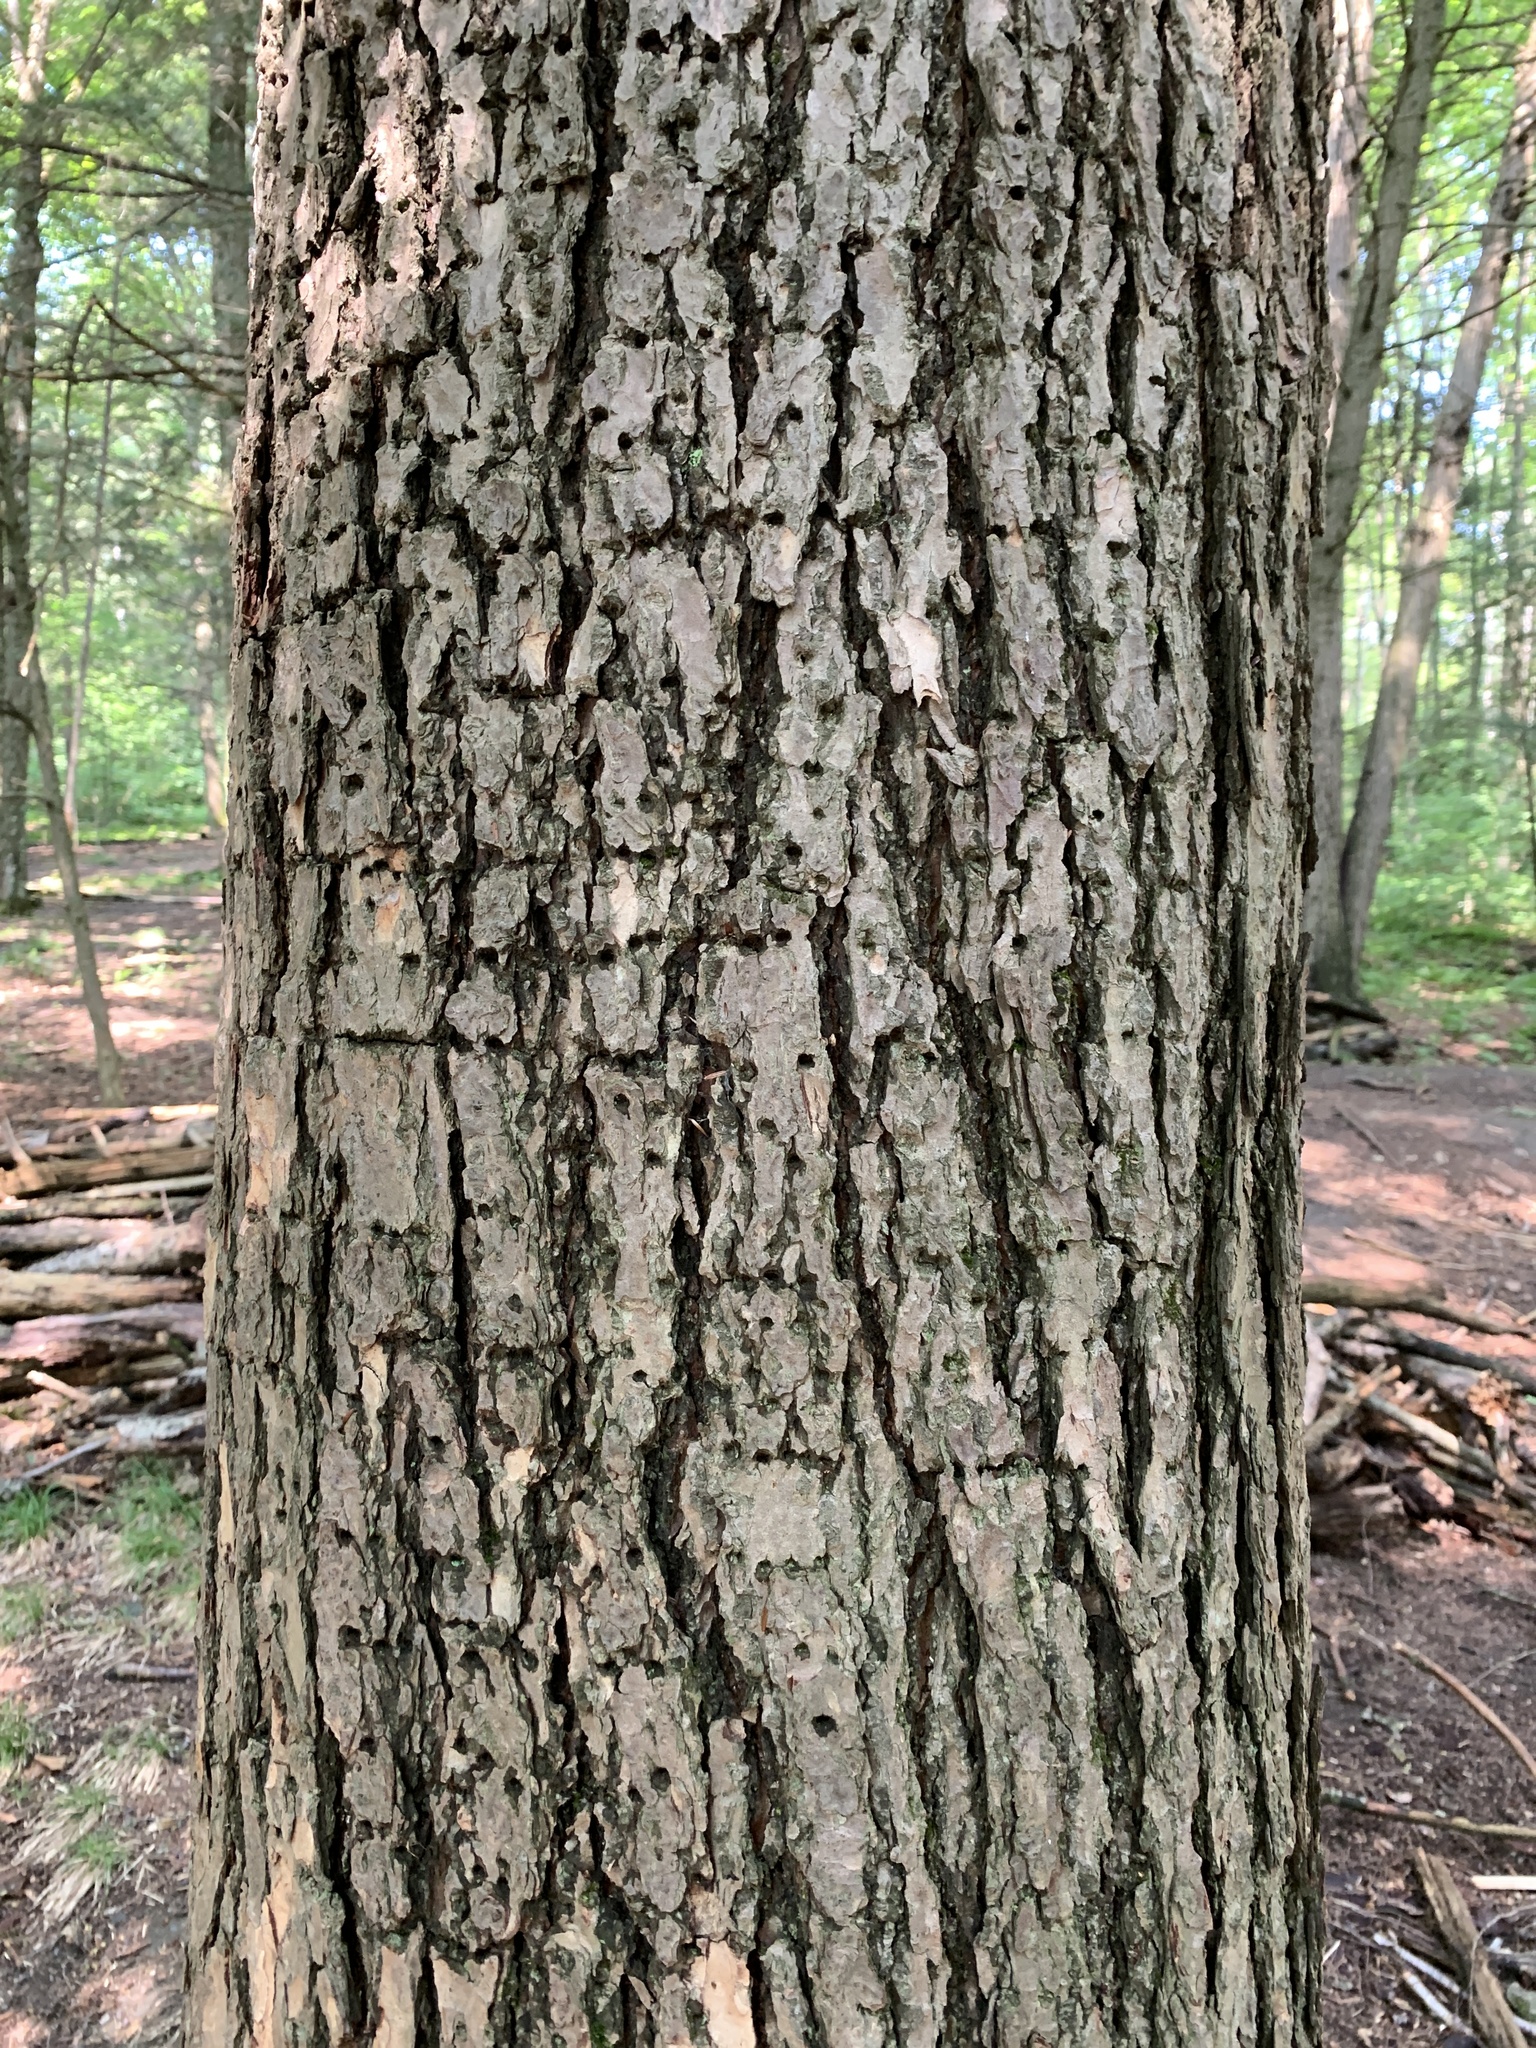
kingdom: Animalia
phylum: Chordata
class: Aves
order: Piciformes
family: Picidae
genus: Sphyrapicus
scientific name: Sphyrapicus varius
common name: Yellow-bellied sapsucker
